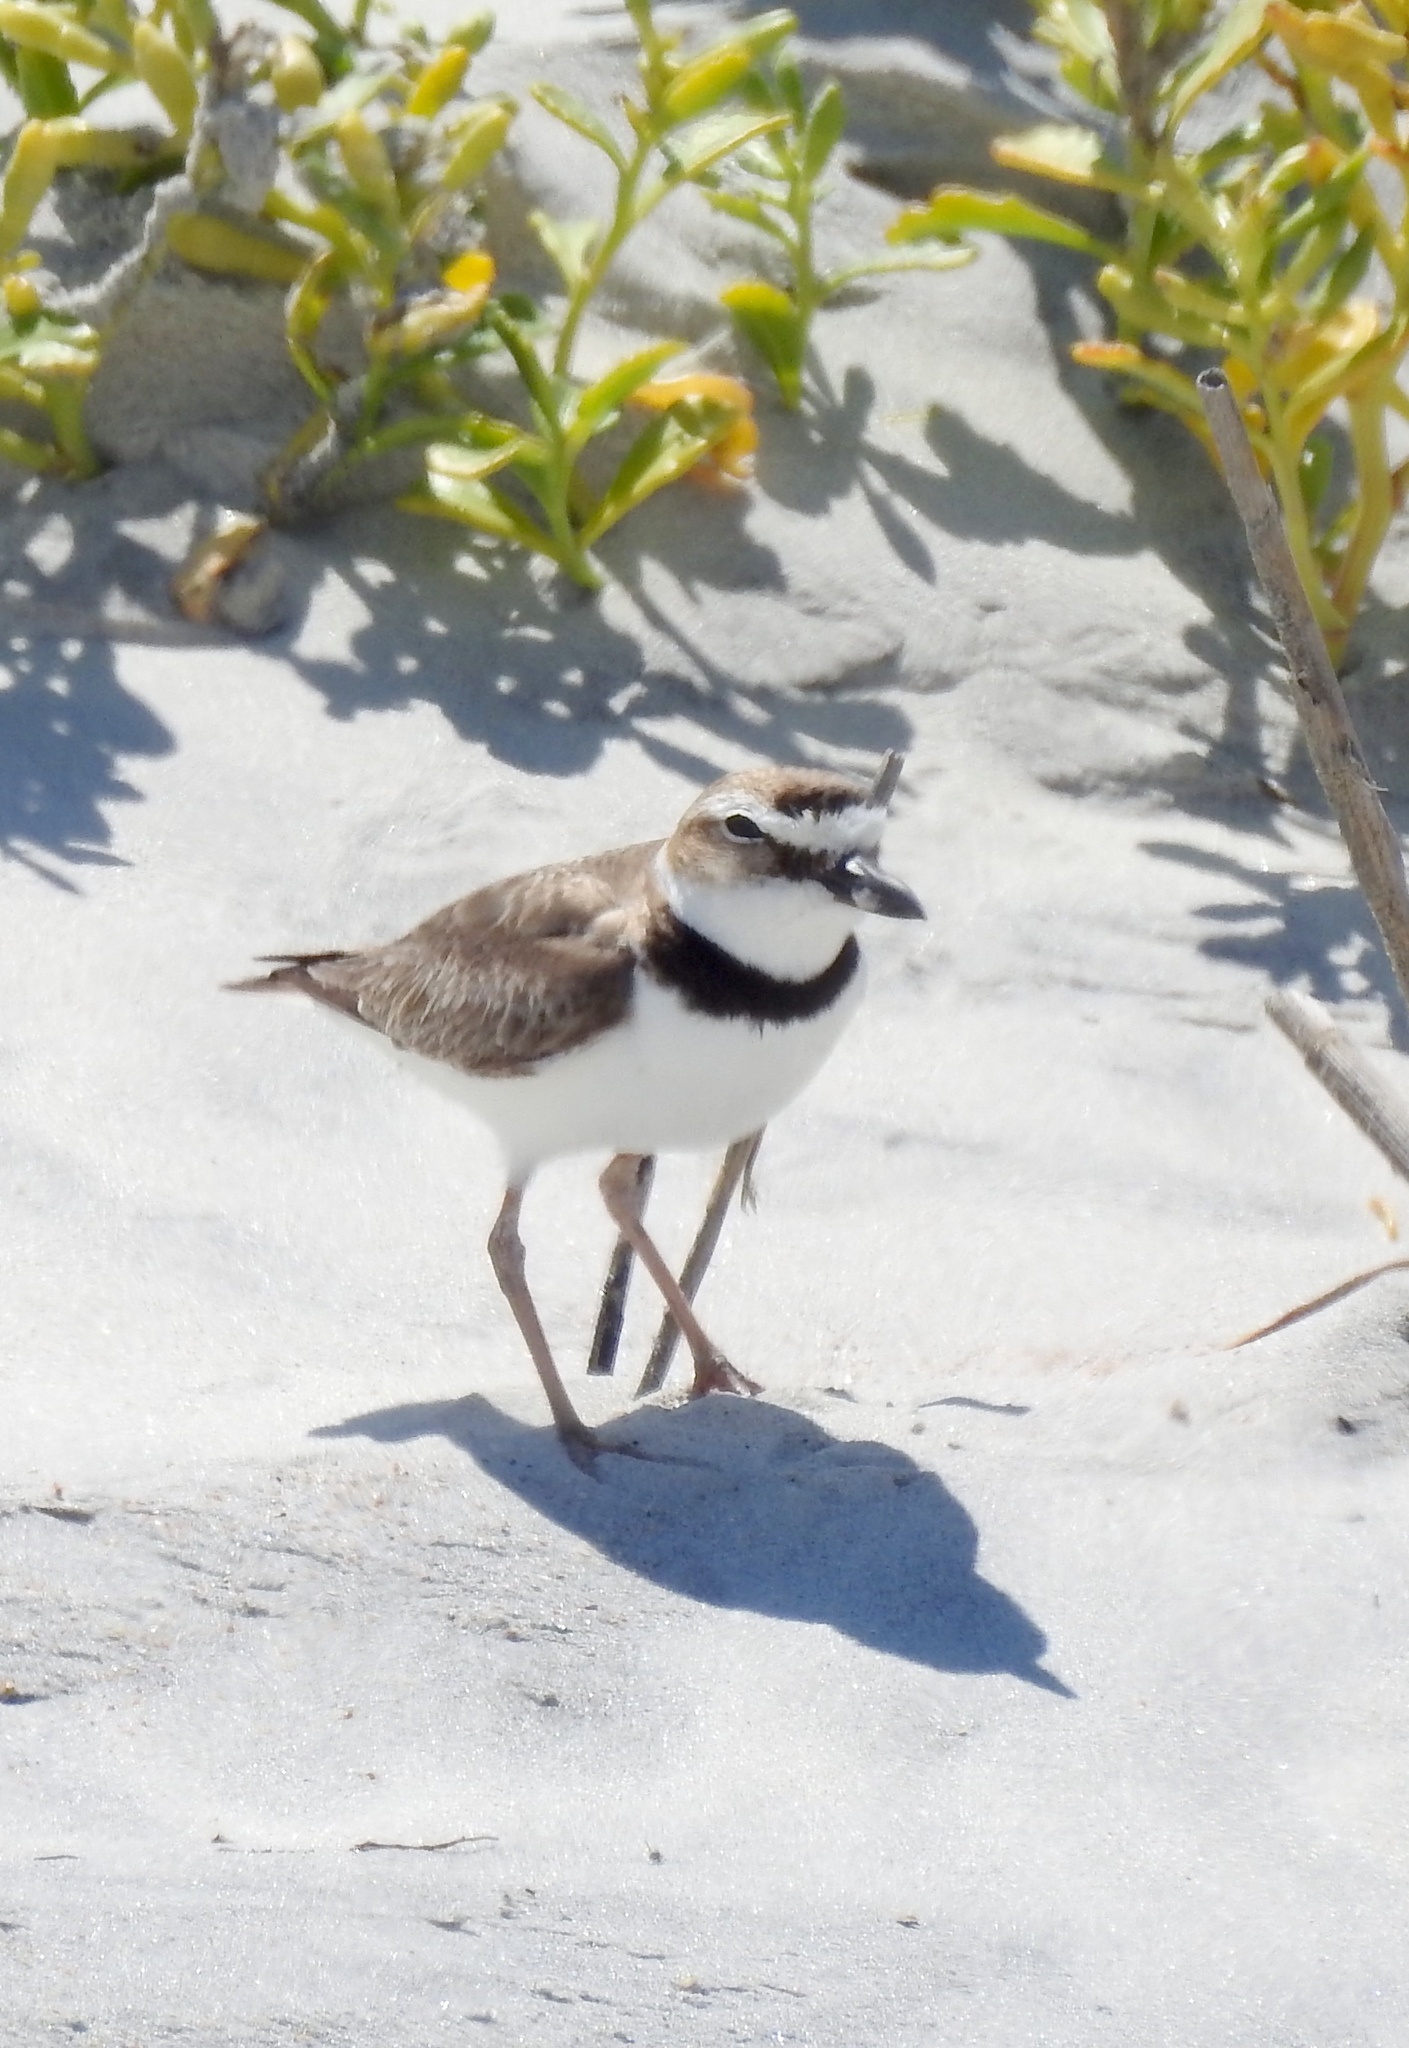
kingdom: Animalia
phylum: Chordata
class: Aves
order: Charadriiformes
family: Charadriidae
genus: Anarhynchus
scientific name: Anarhynchus
